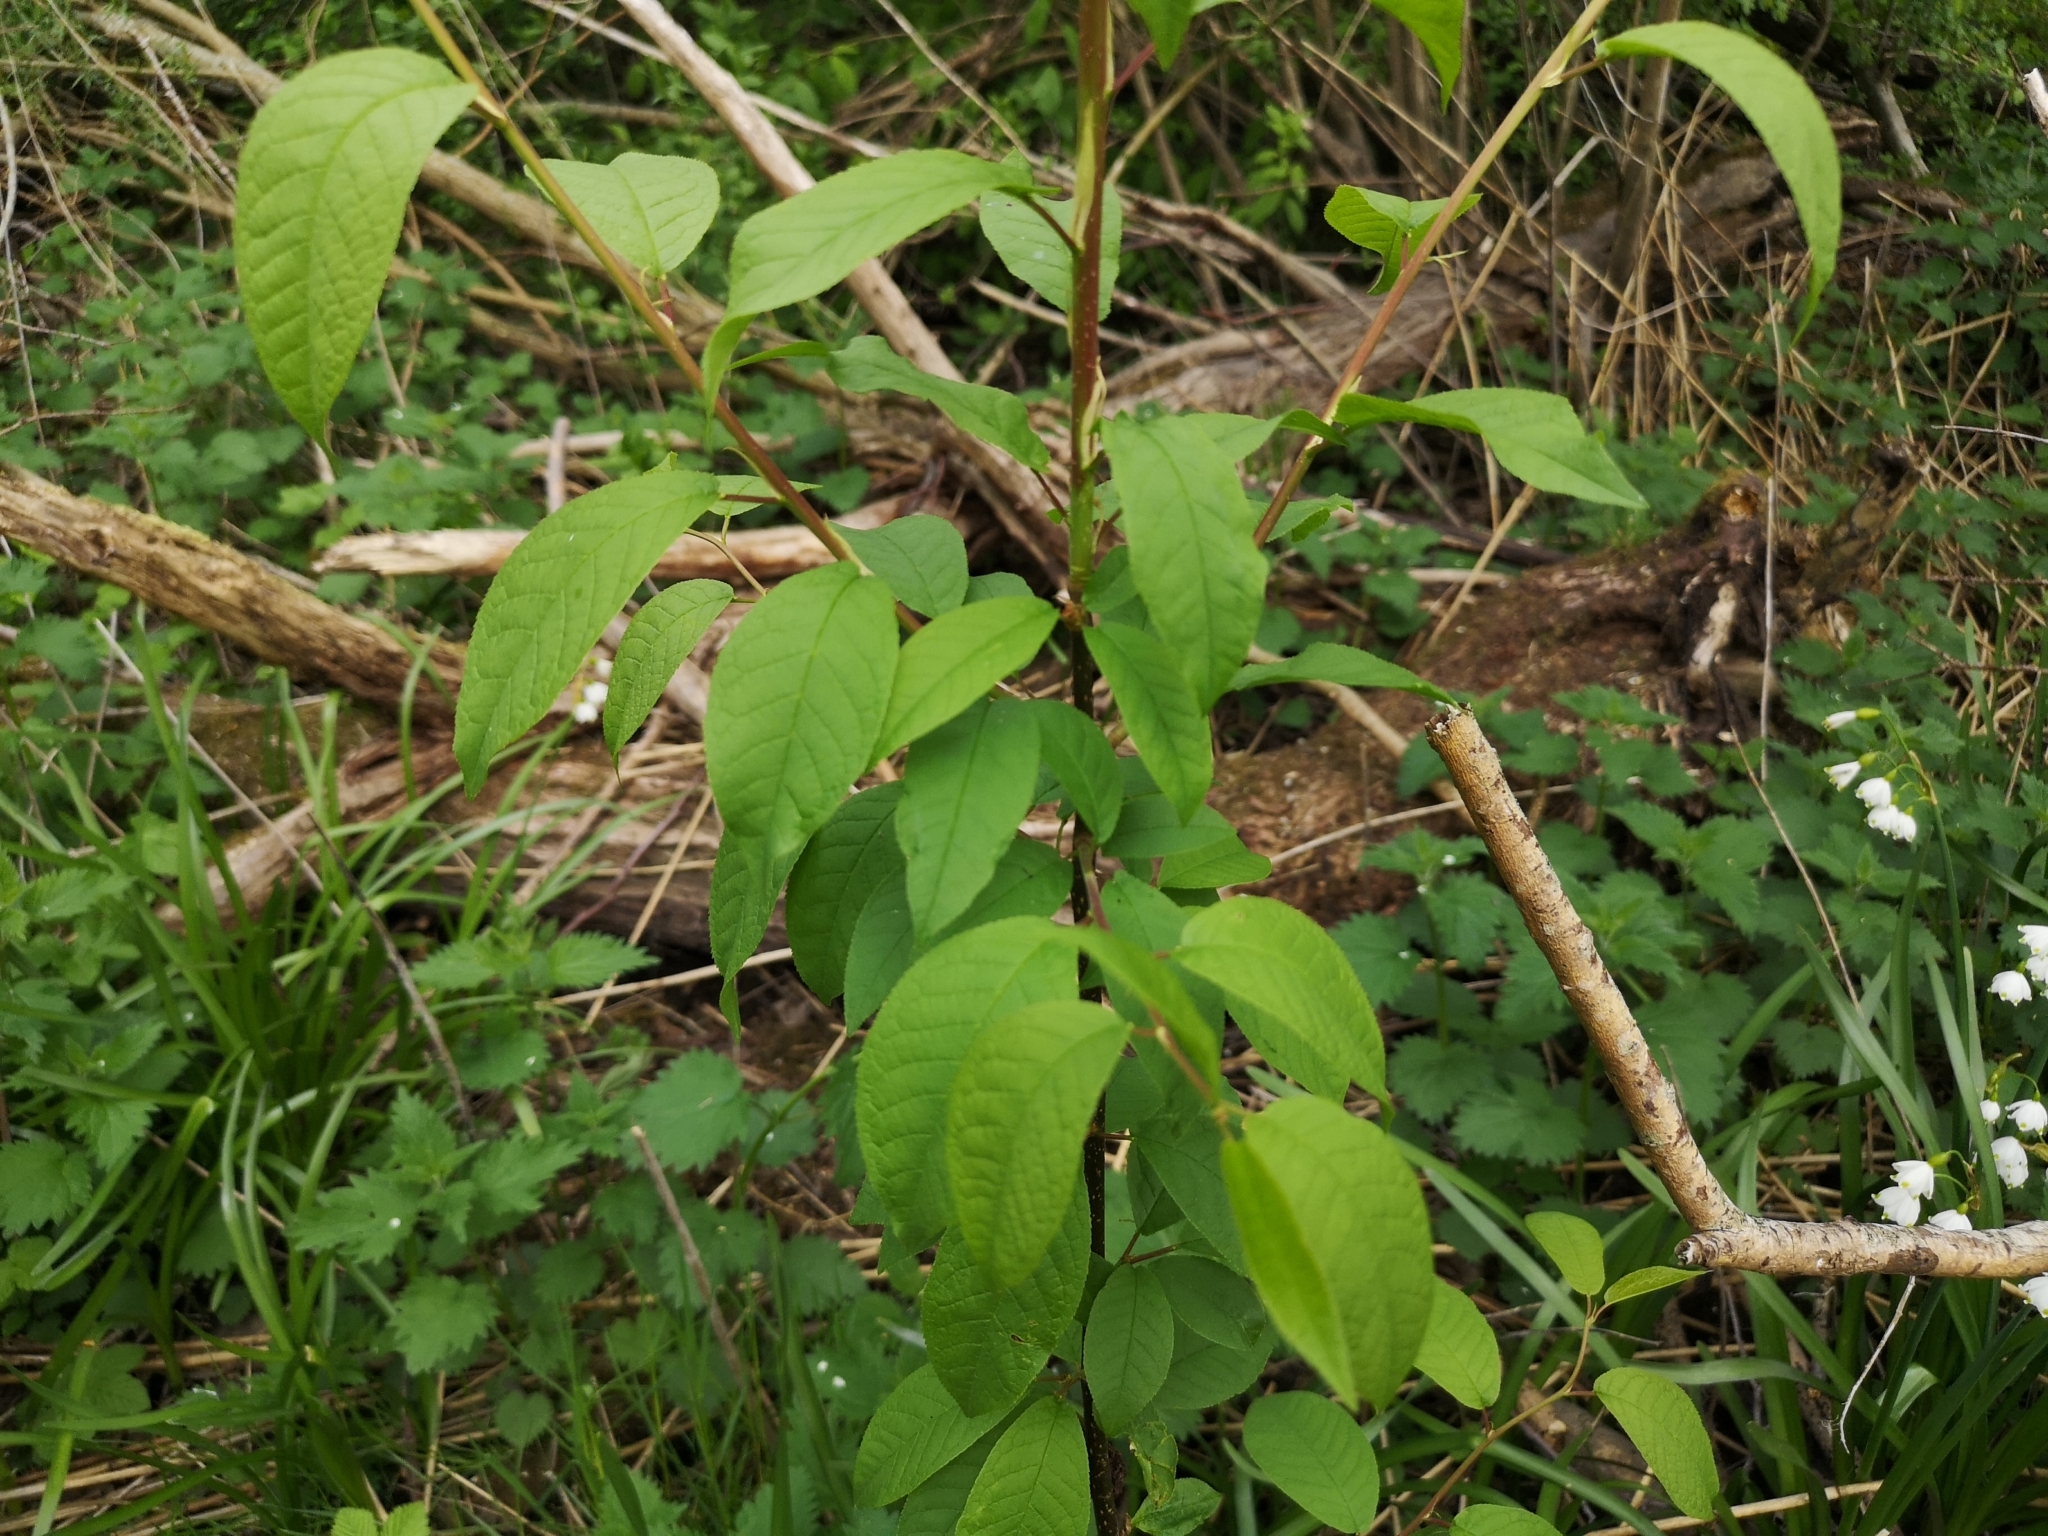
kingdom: Plantae
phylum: Tracheophyta
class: Magnoliopsida
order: Rosales
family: Rosaceae
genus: Prunus
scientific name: Prunus padus
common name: Bird cherry
